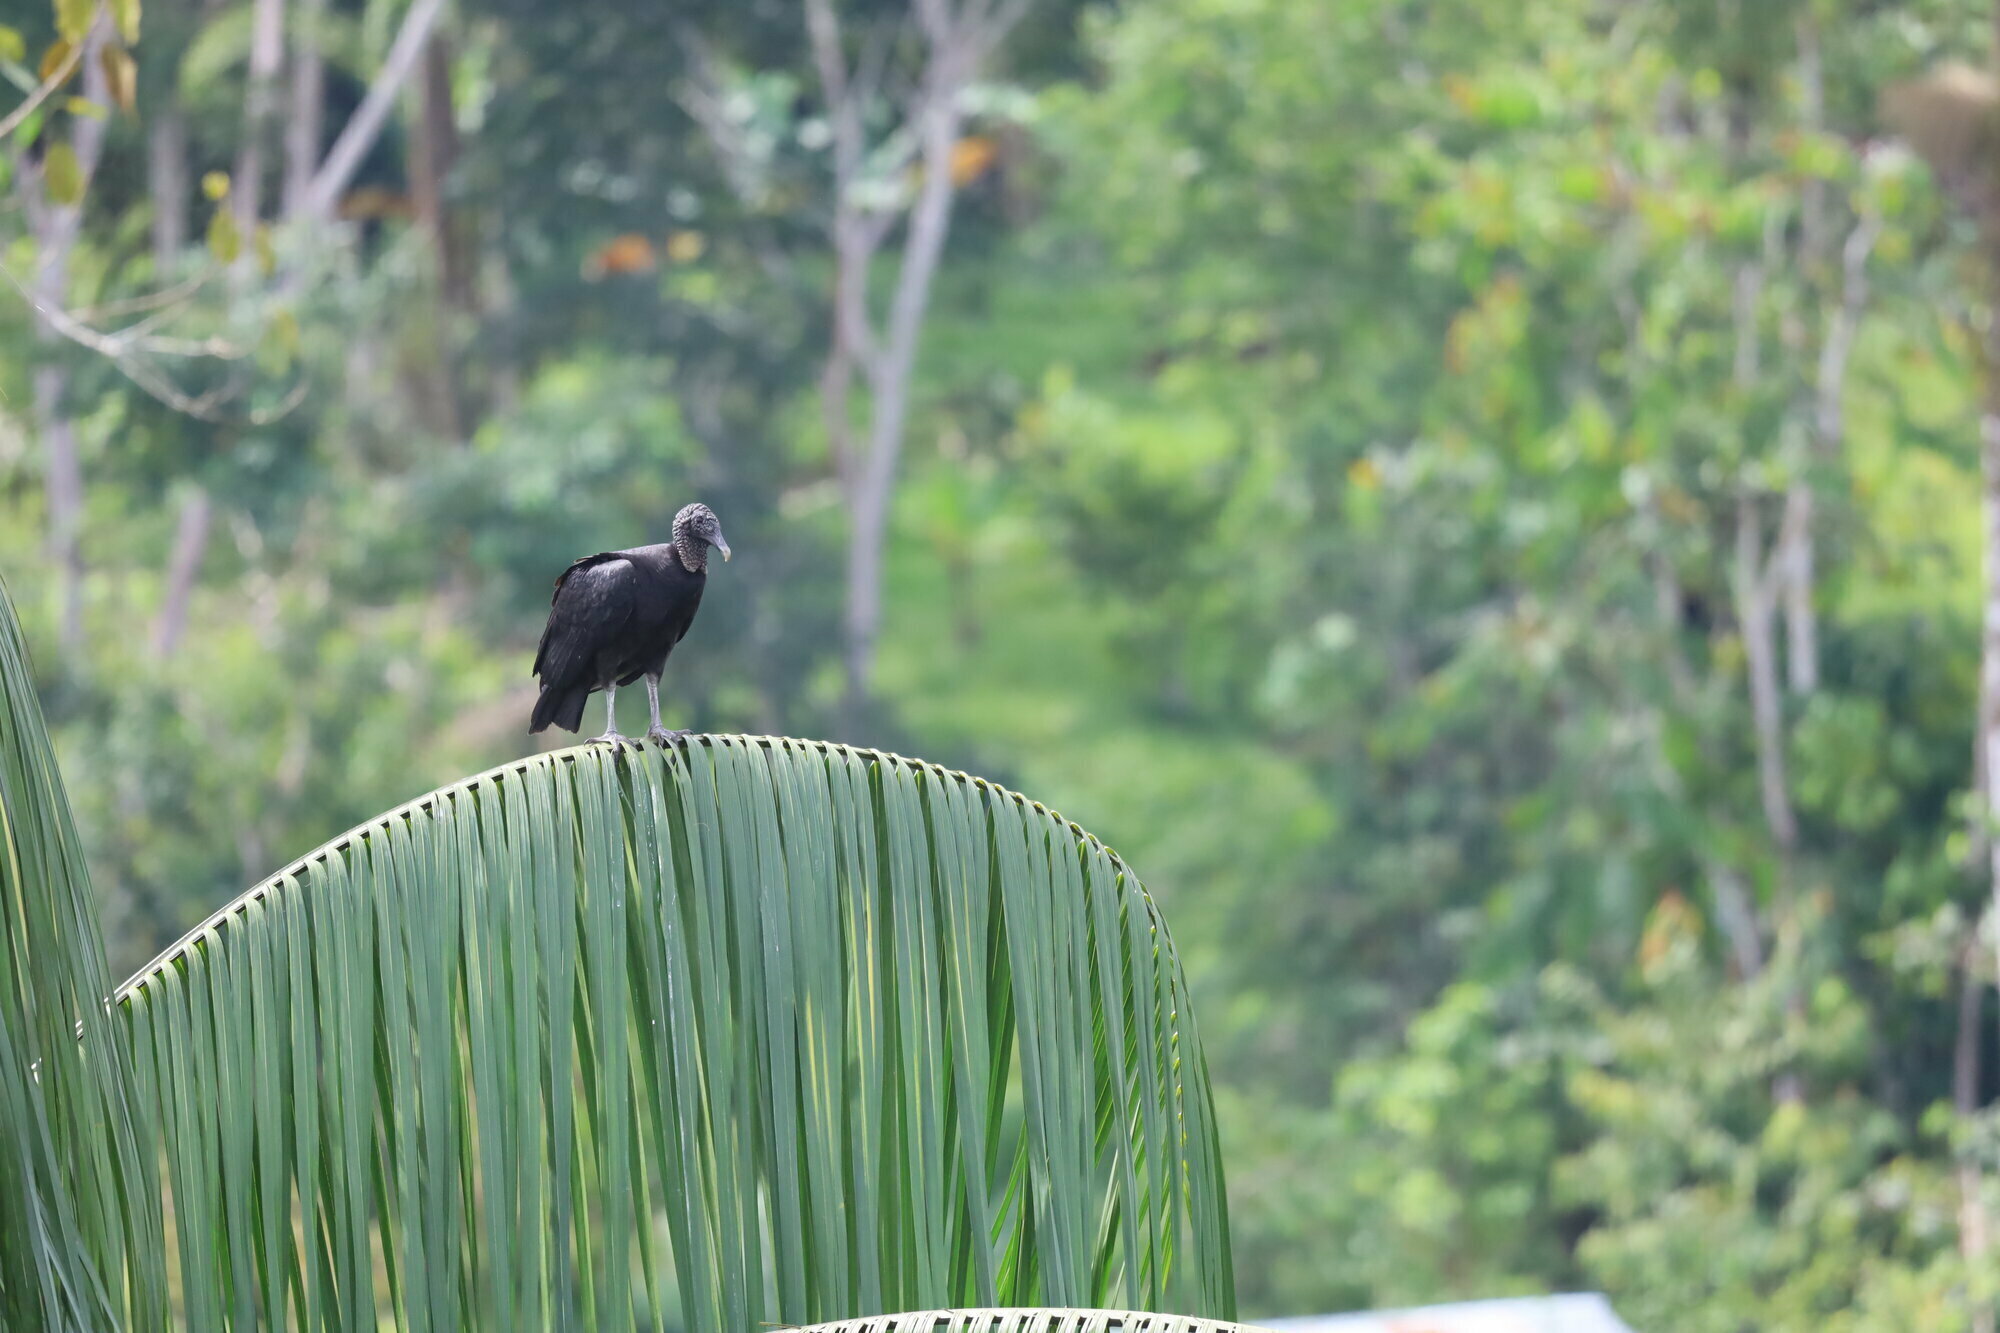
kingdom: Animalia
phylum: Chordata
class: Aves
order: Accipitriformes
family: Cathartidae
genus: Coragyps
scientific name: Coragyps atratus
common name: Black vulture
